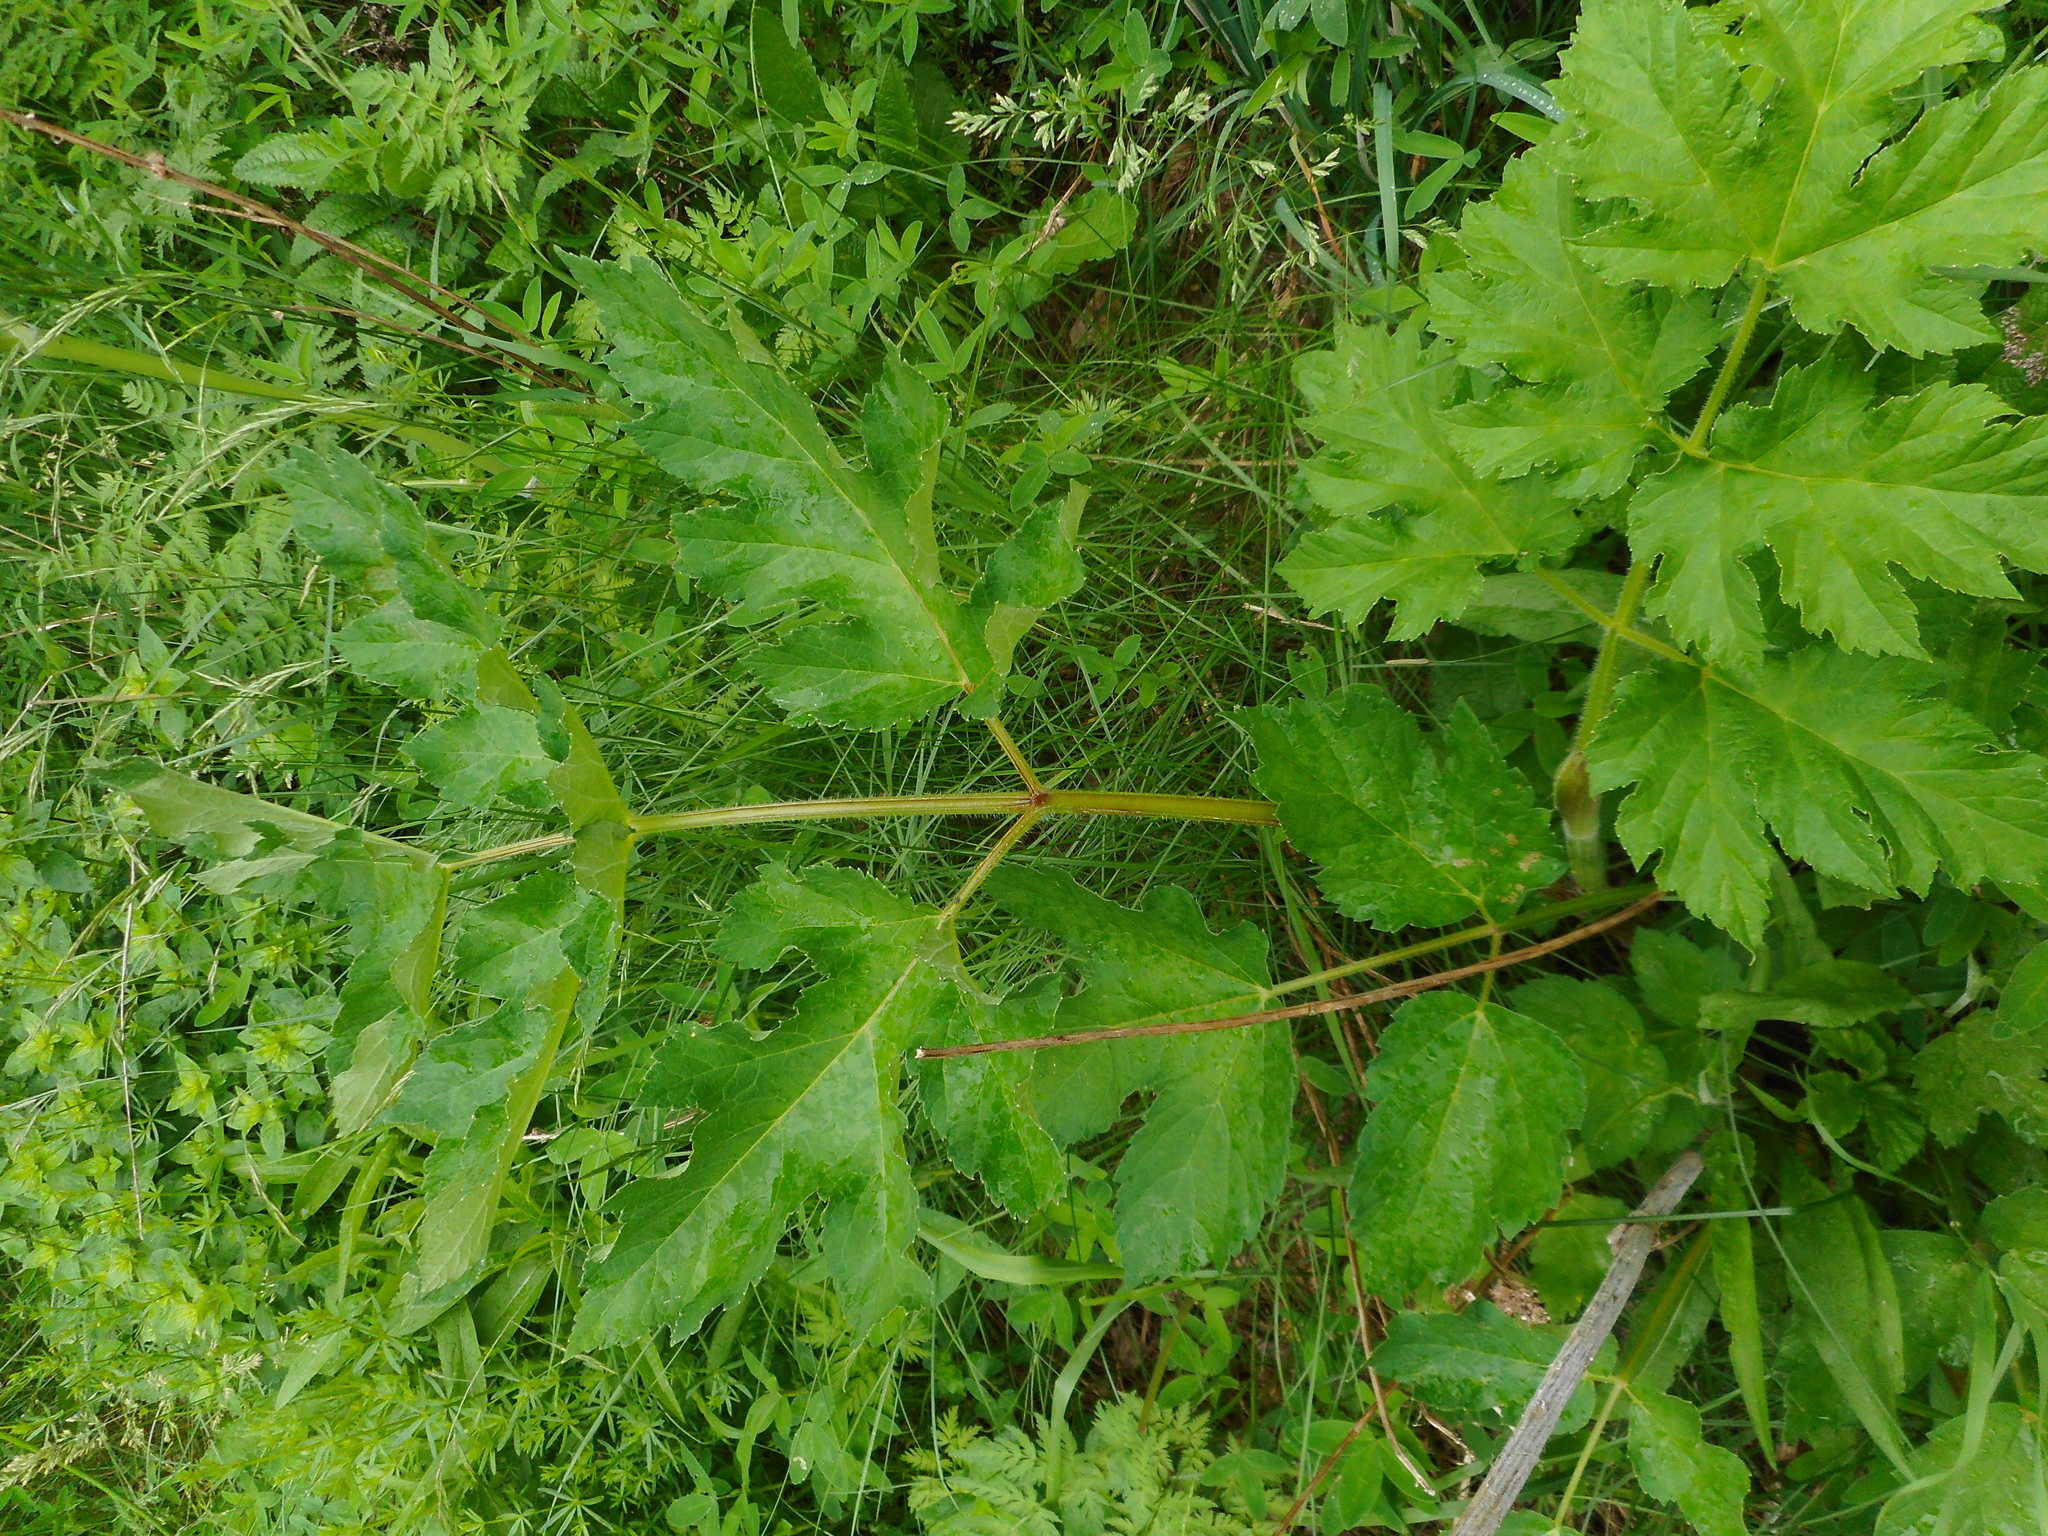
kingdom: Plantae
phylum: Tracheophyta
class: Magnoliopsida
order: Apiales
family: Apiaceae
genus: Heracleum
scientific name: Heracleum sphondylium
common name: Hogweed
